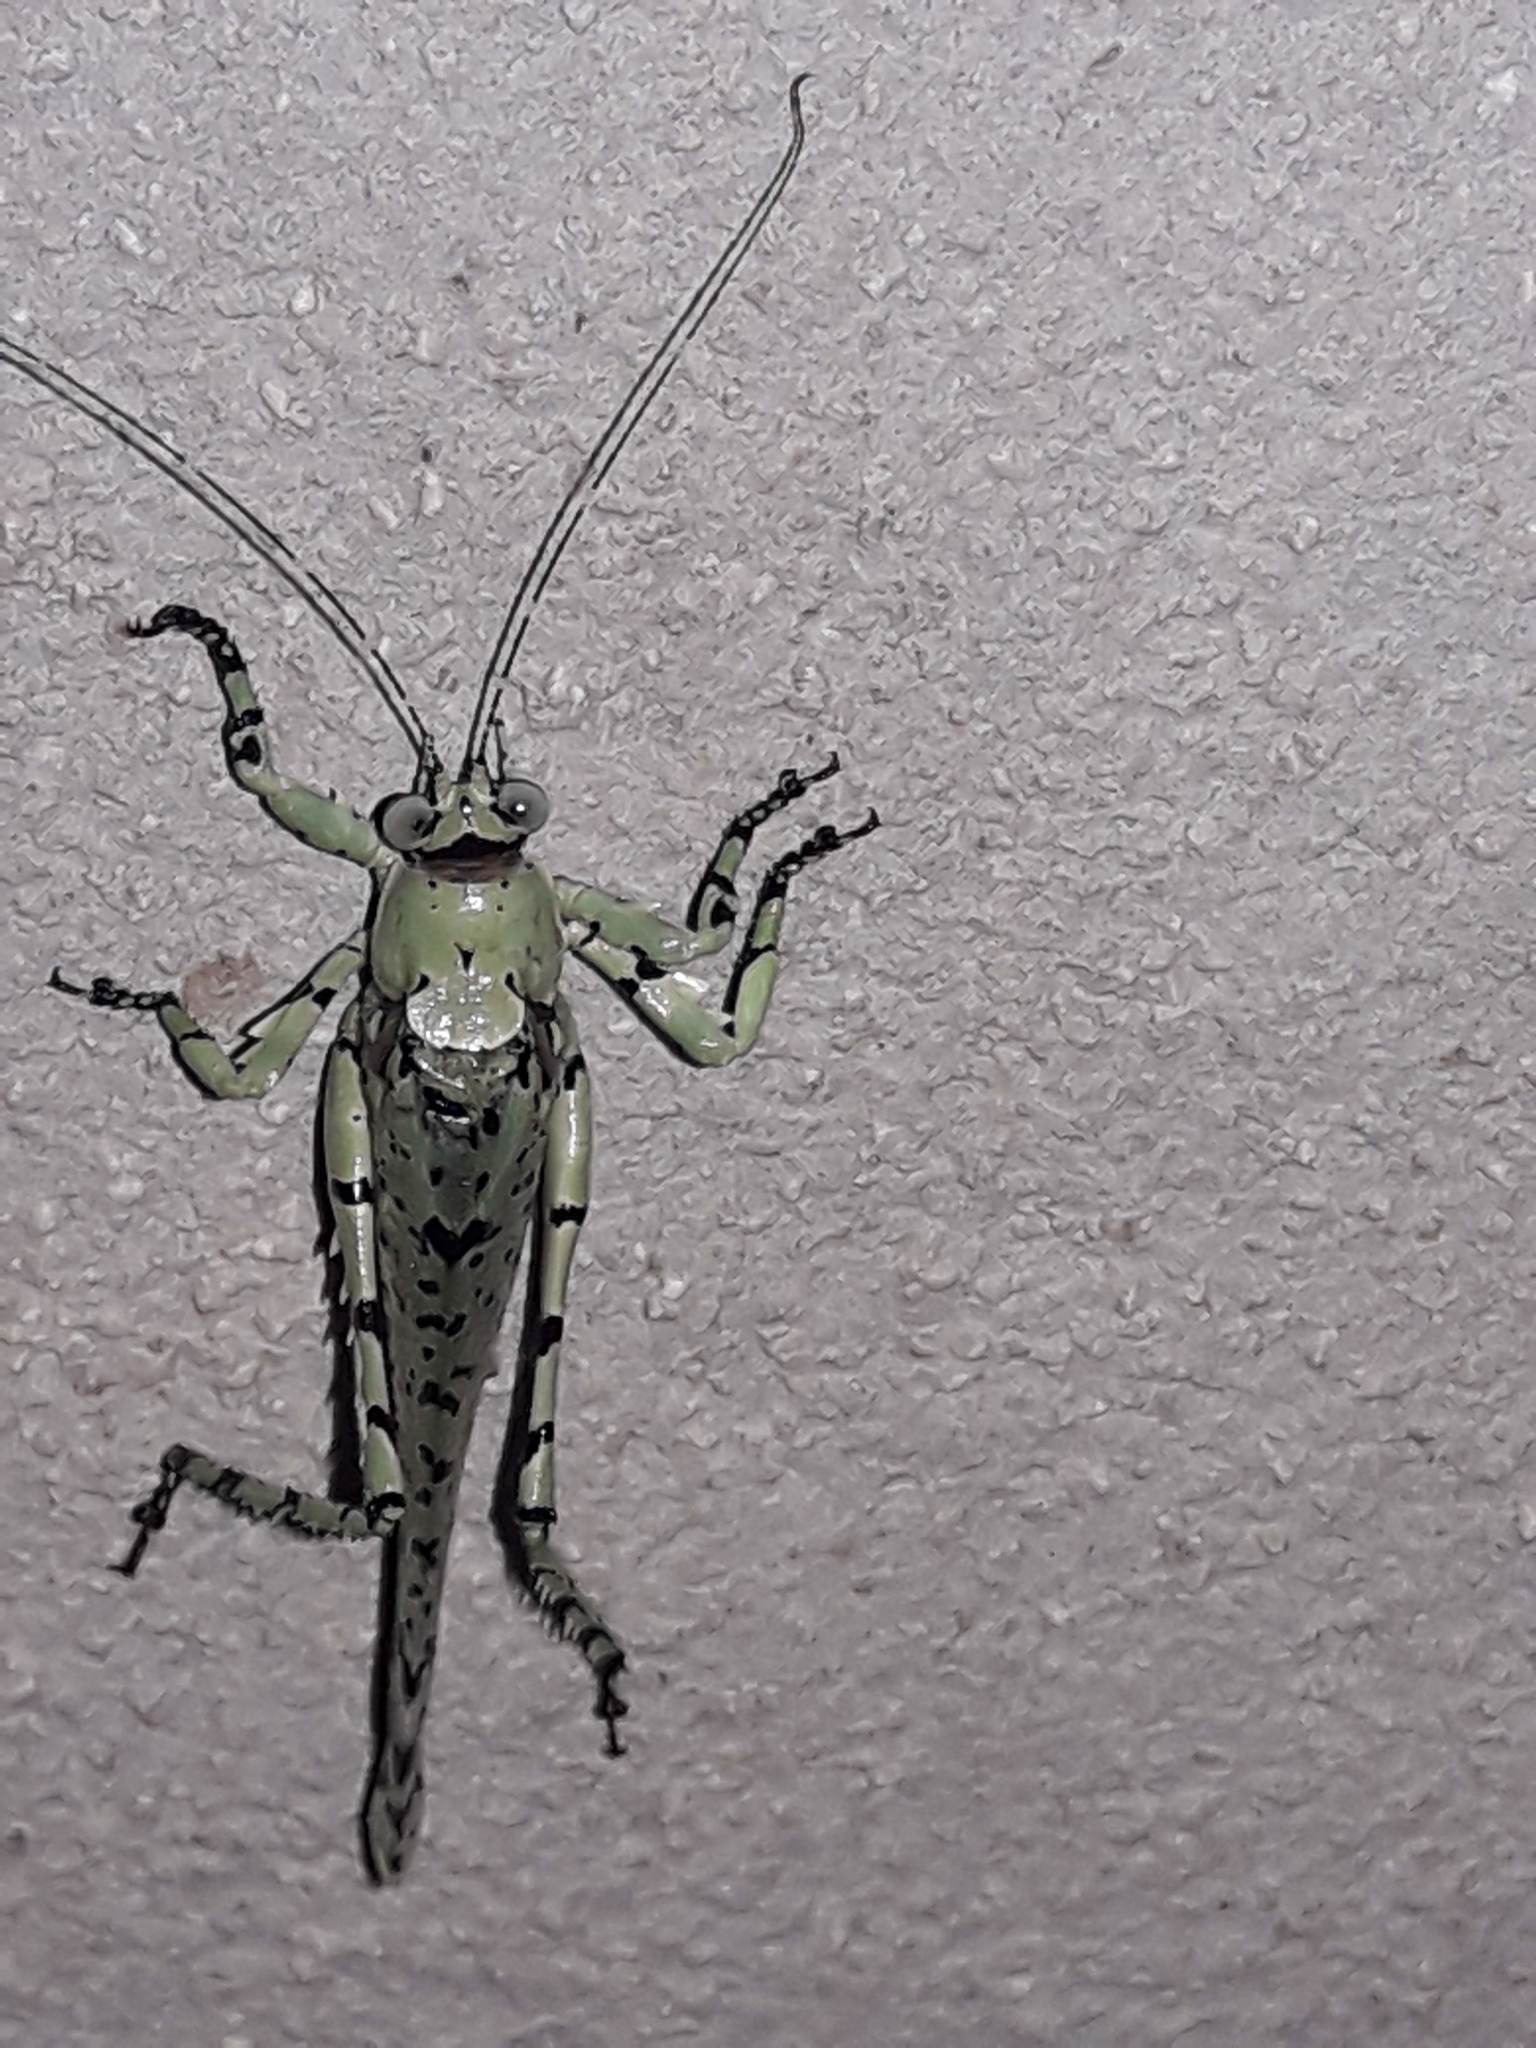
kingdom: Animalia
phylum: Arthropoda
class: Insecta
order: Orthoptera
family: Tettigoniidae
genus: Dissonulichen
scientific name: Dissonulichen simplicipes
